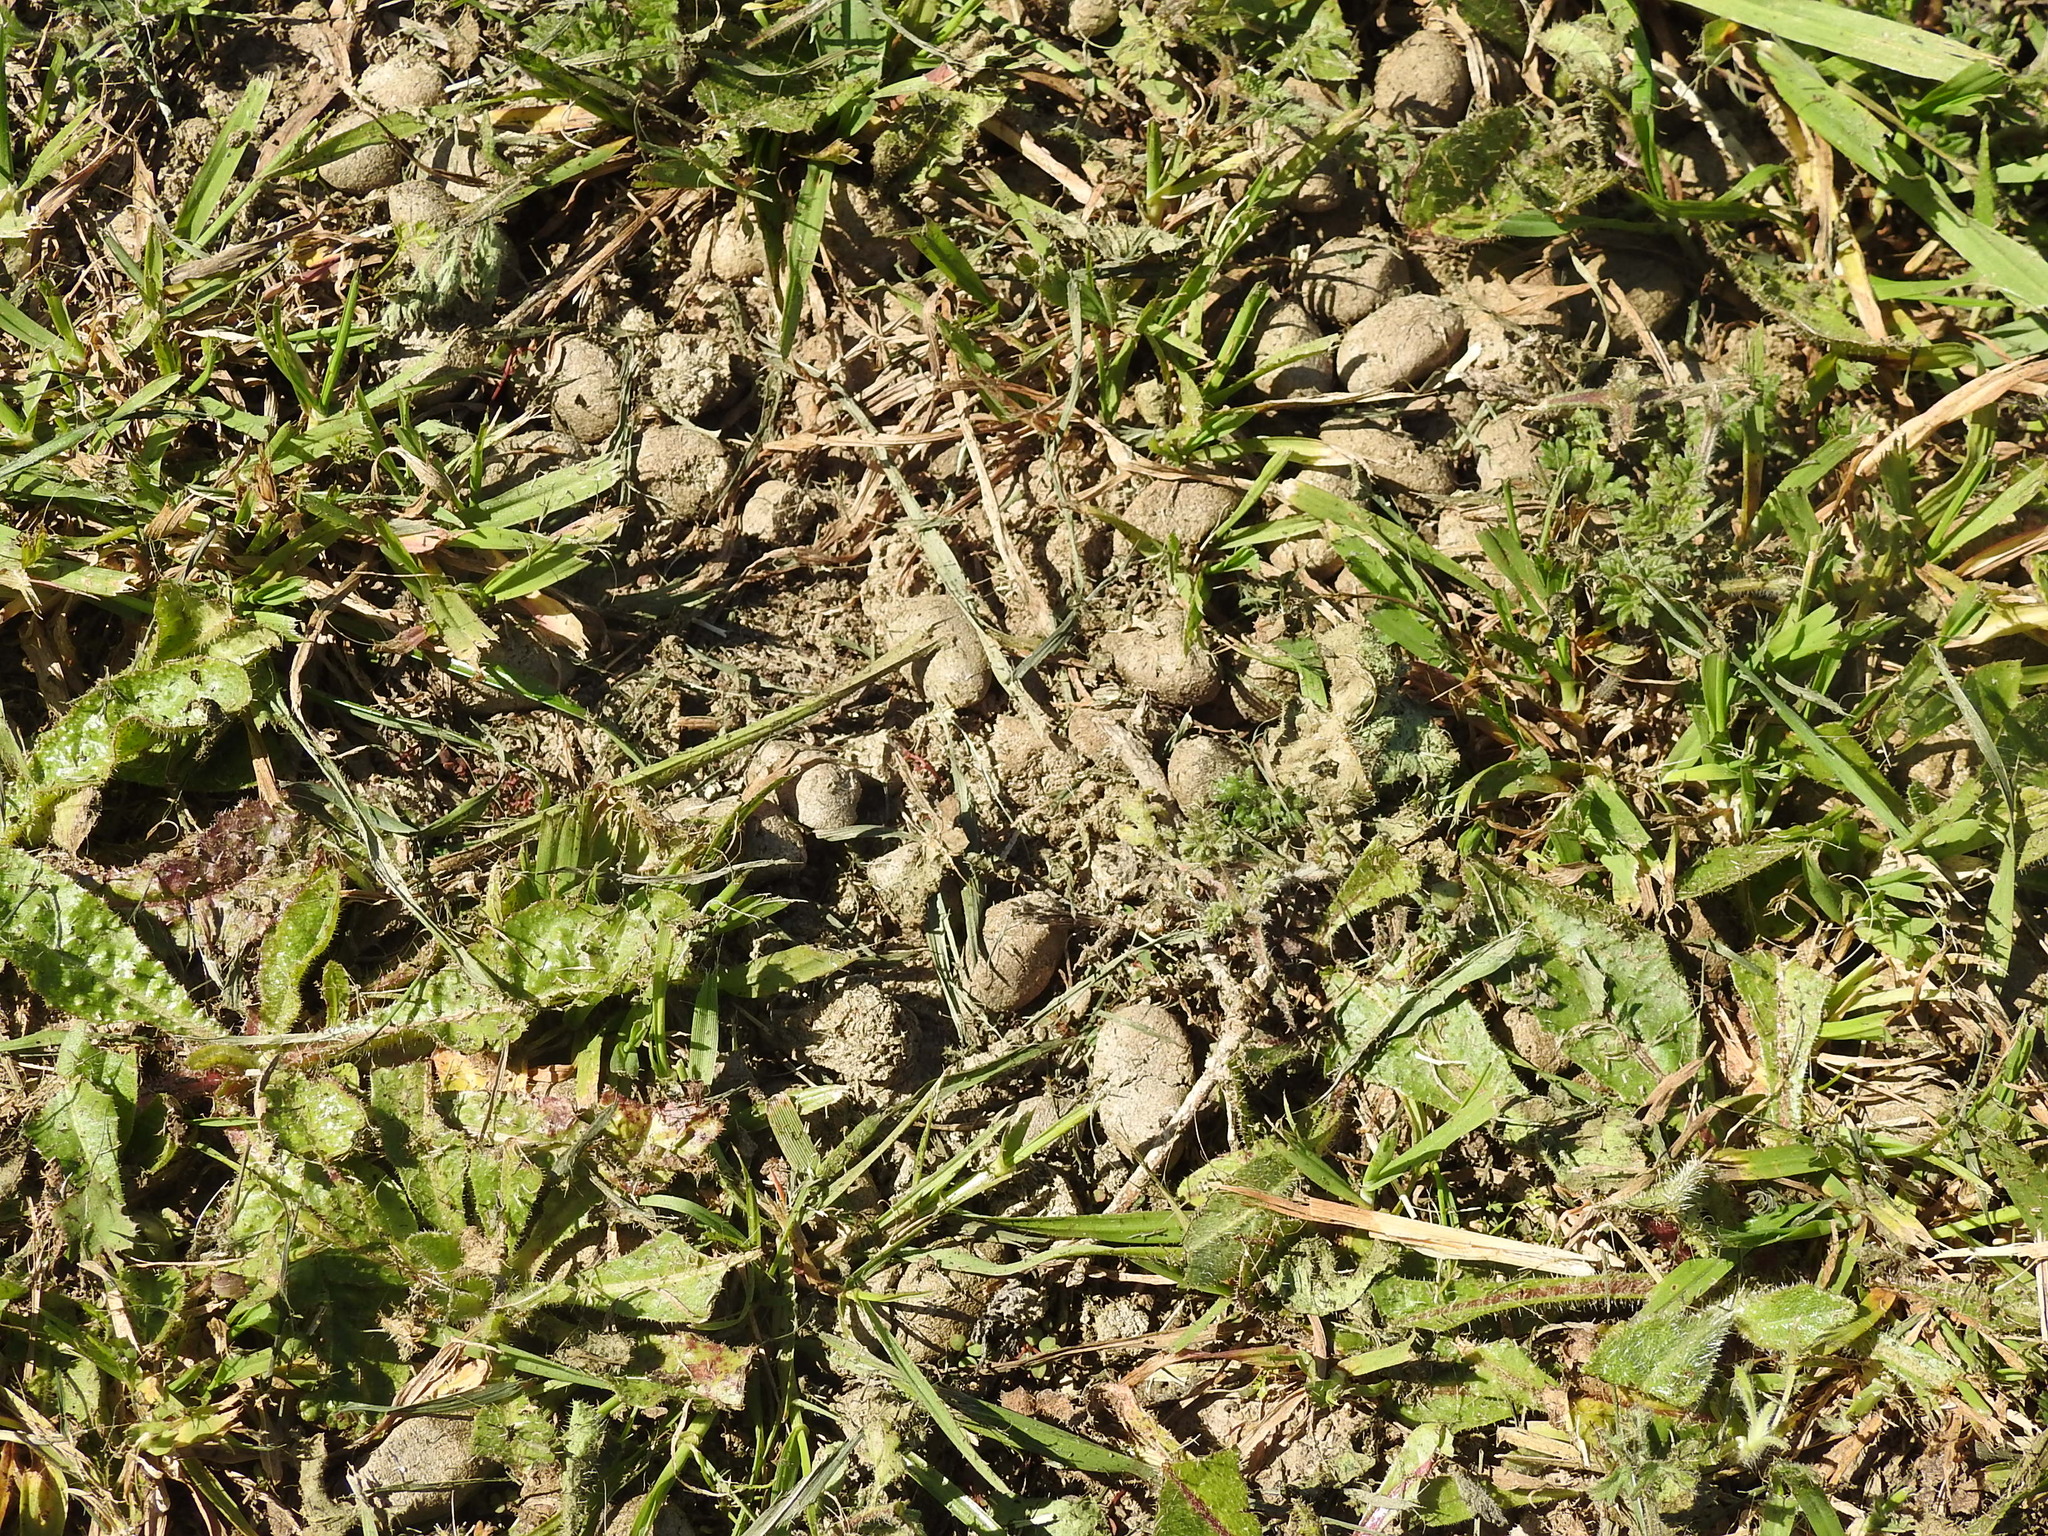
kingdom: Animalia
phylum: Chordata
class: Mammalia
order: Rodentia
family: Caviidae
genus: Hydrochoerus
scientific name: Hydrochoerus hydrochaeris
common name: Capybara
